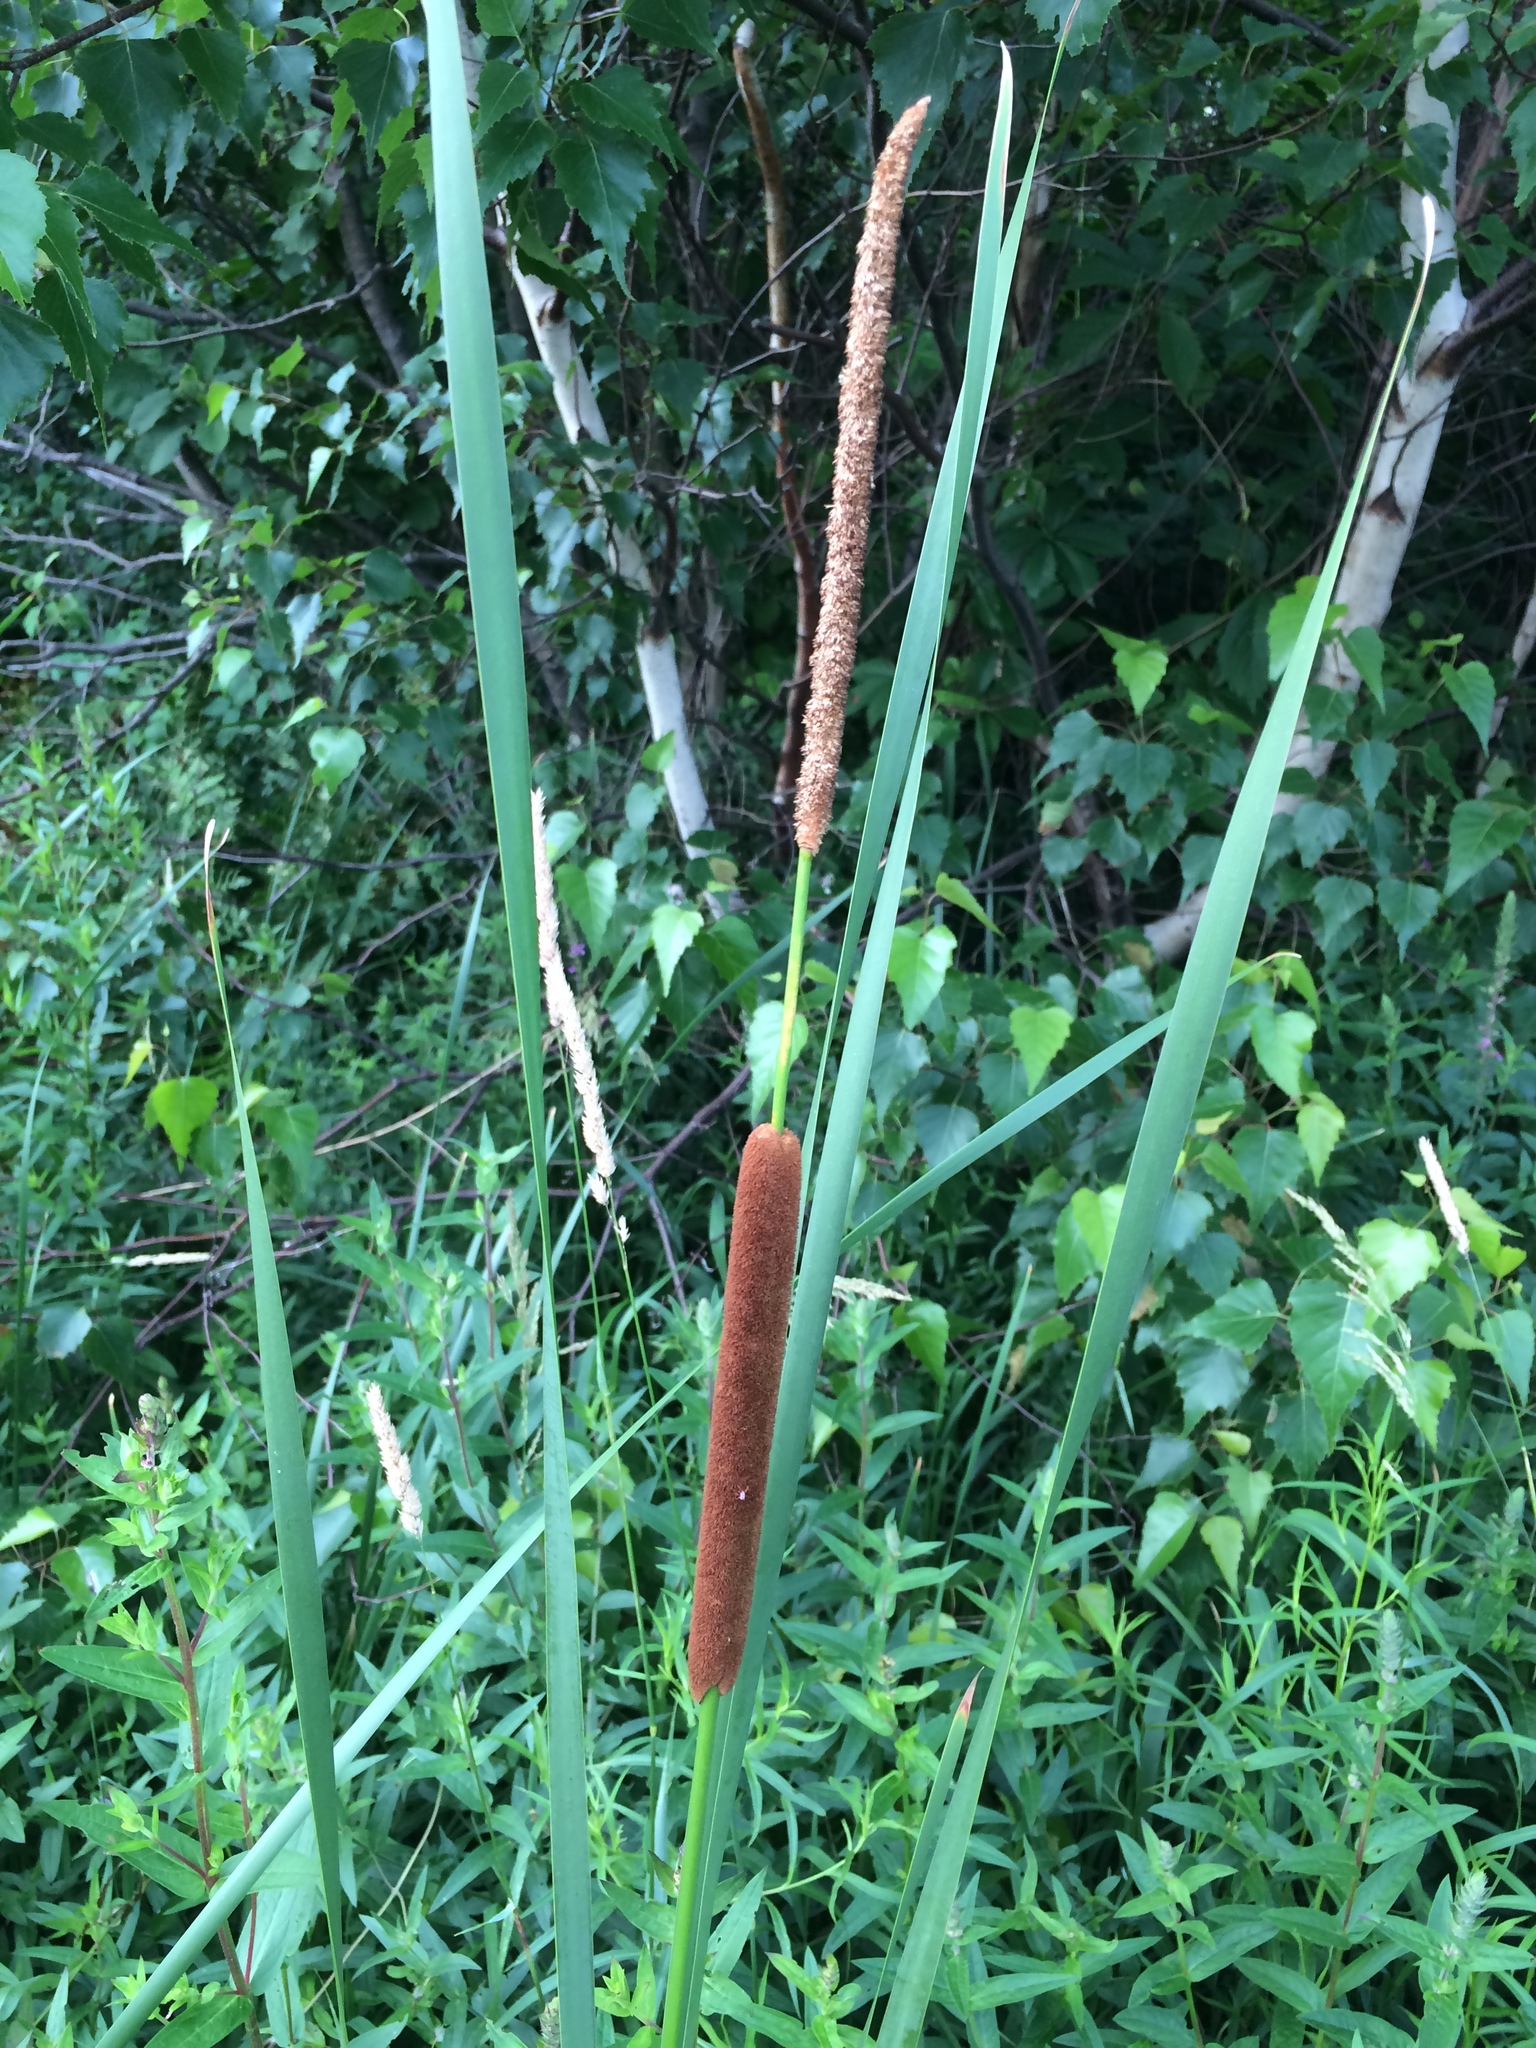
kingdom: Plantae
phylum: Tracheophyta
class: Liliopsida
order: Poales
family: Typhaceae
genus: Typha
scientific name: Typha angustifolia
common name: Lesser bulrush
